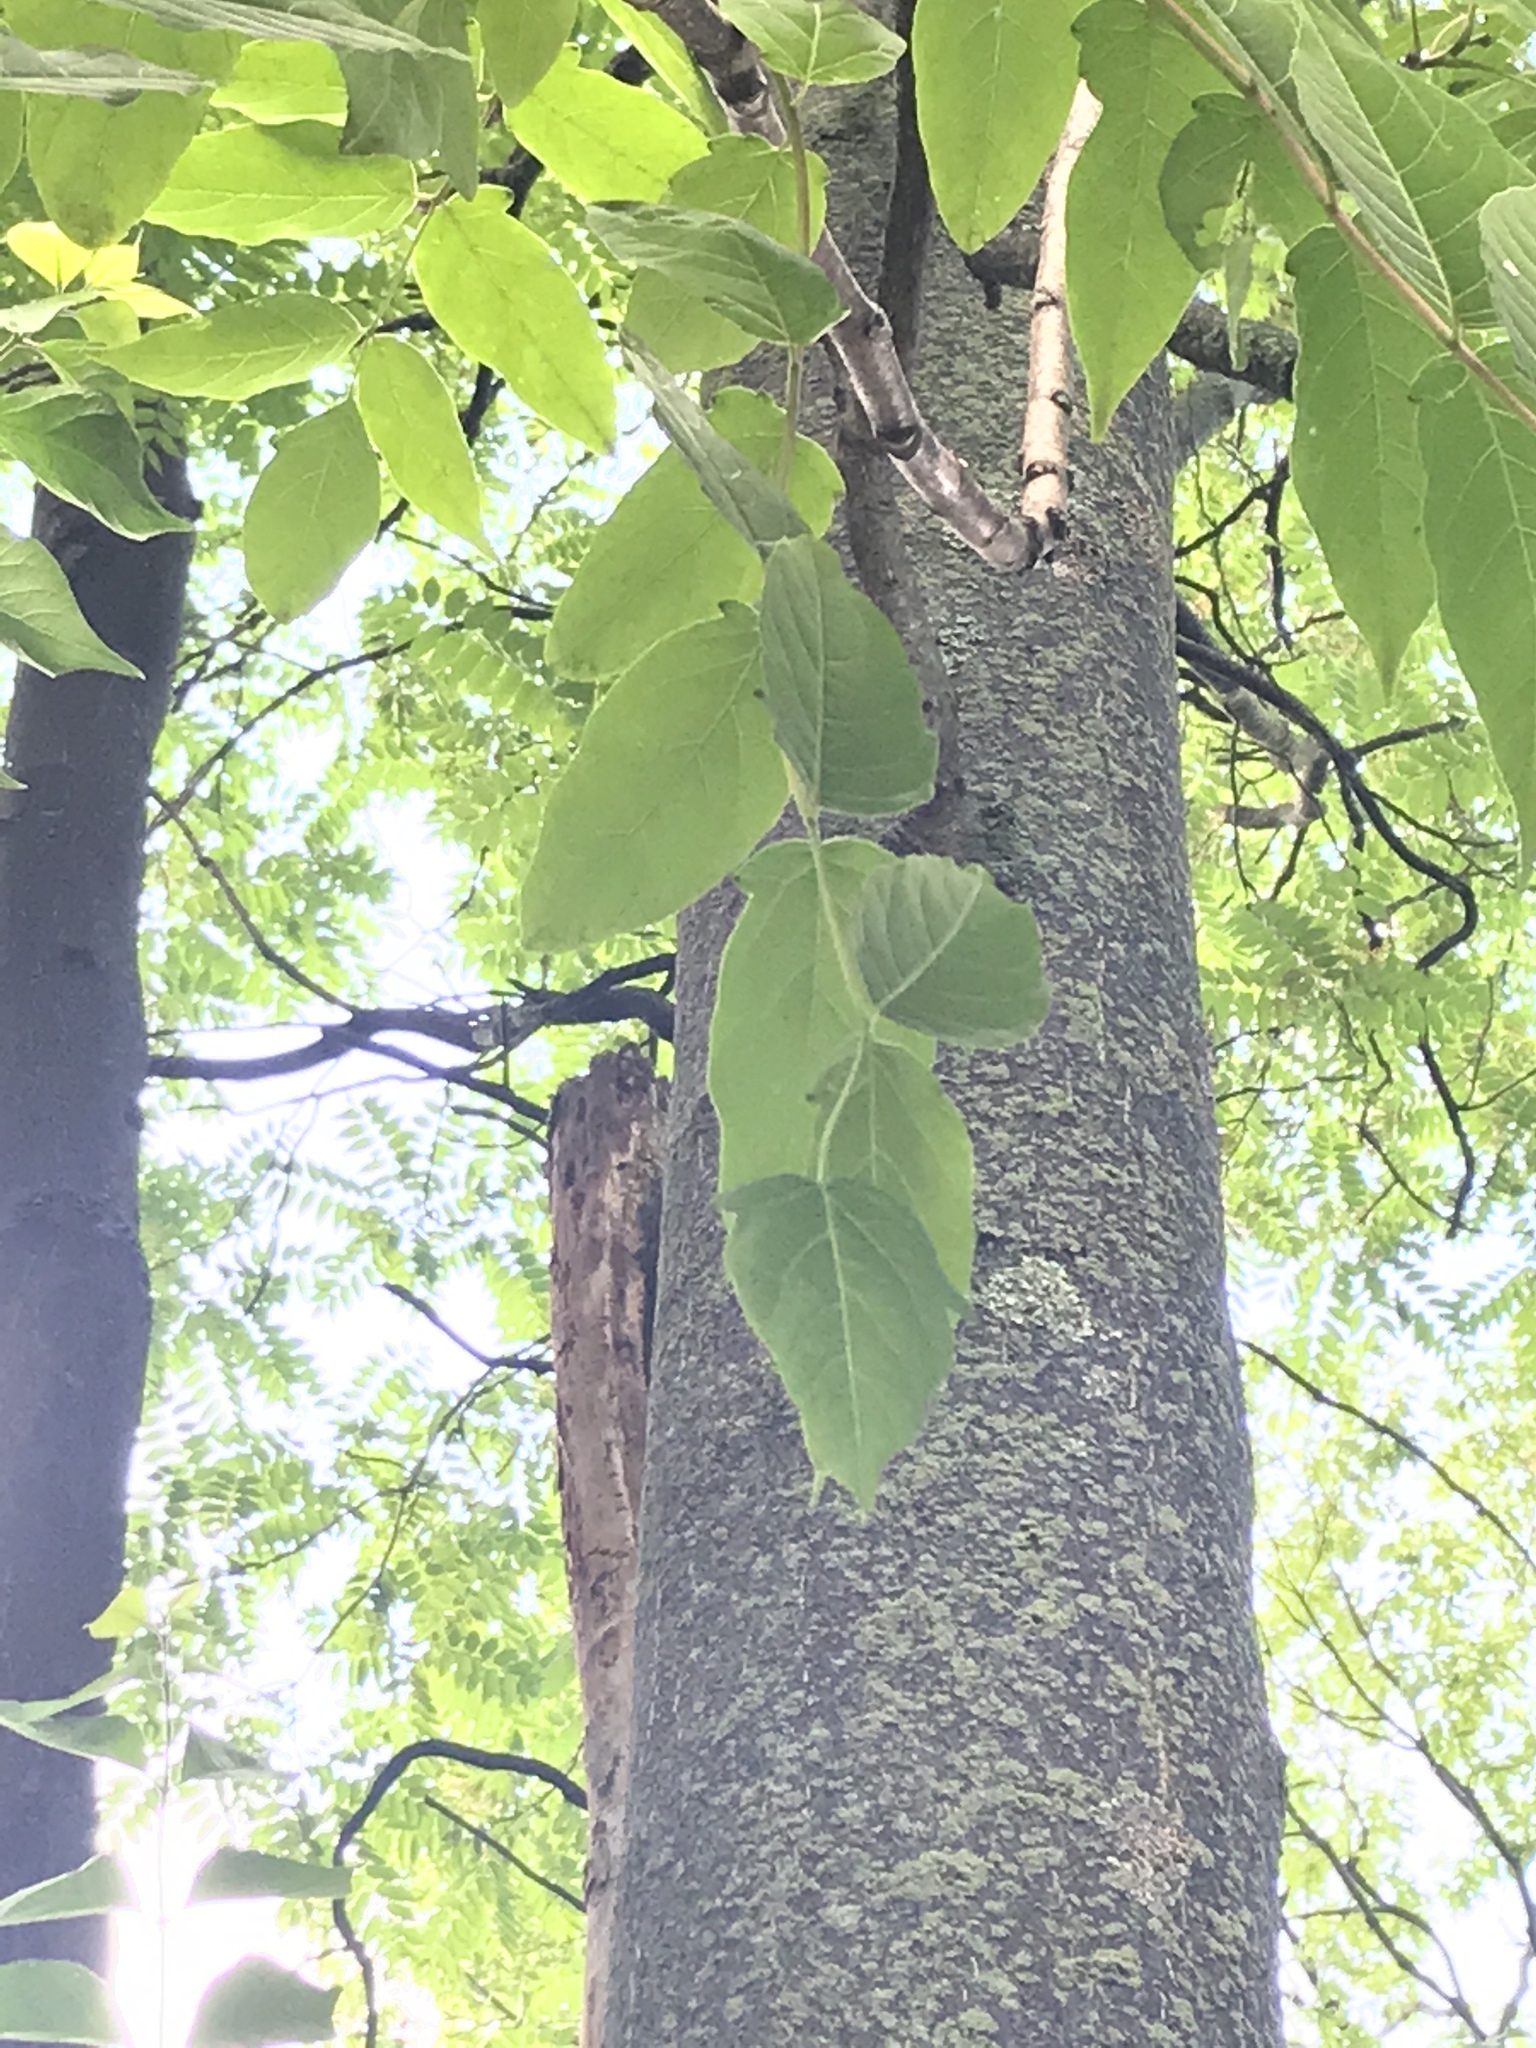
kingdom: Plantae
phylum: Tracheophyta
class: Magnoliopsida
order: Sapindales
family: Simaroubaceae
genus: Ailanthus
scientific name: Ailanthus altissima
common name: Tree-of-heaven
